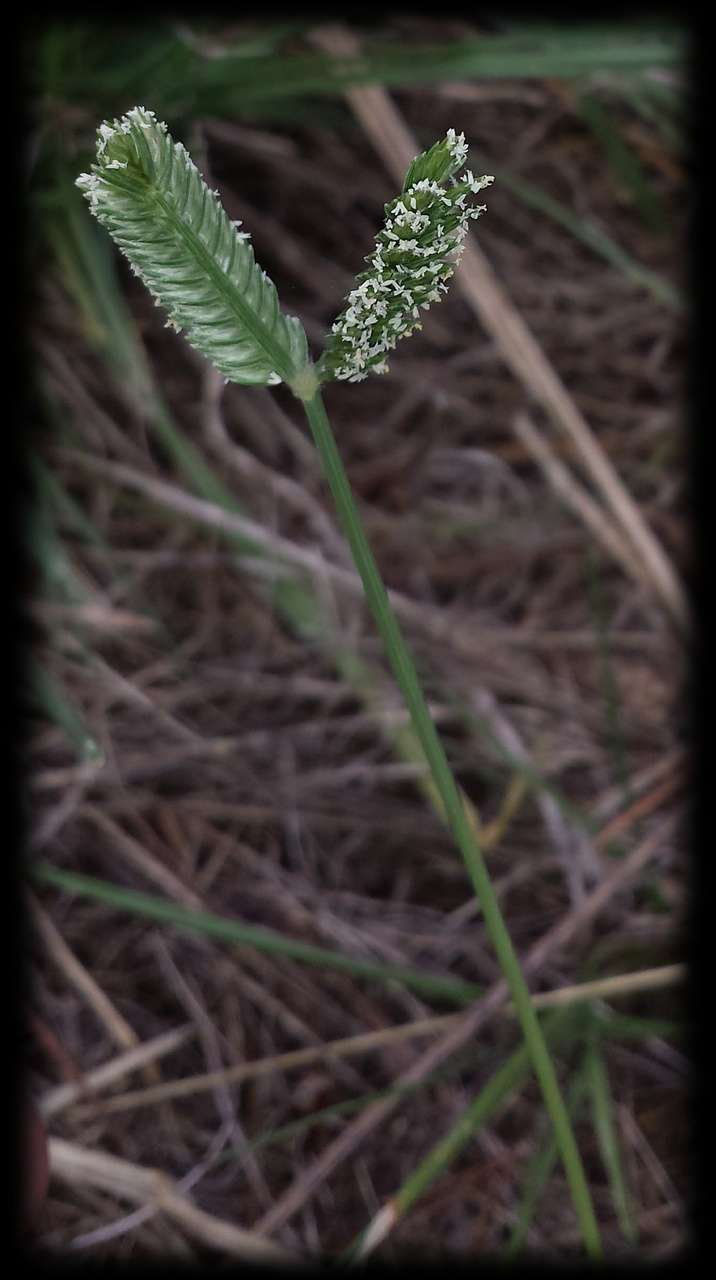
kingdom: Plantae
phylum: Tracheophyta
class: Liliopsida
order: Poales
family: Poaceae
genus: Eleusine
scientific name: Eleusine tristachya
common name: American yard-grass
